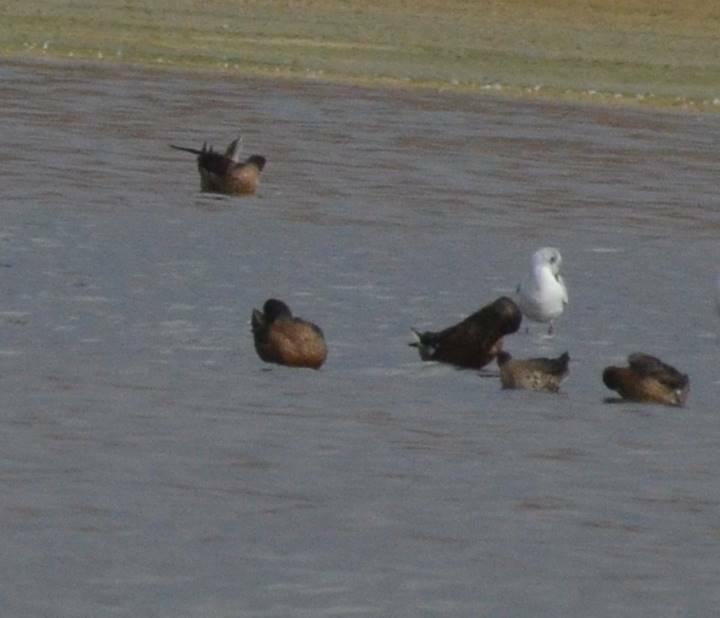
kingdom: Animalia
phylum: Chordata
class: Aves
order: Charadriiformes
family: Laridae
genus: Chroicocephalus
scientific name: Chroicocephalus ridibundus
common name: Black-headed gull
